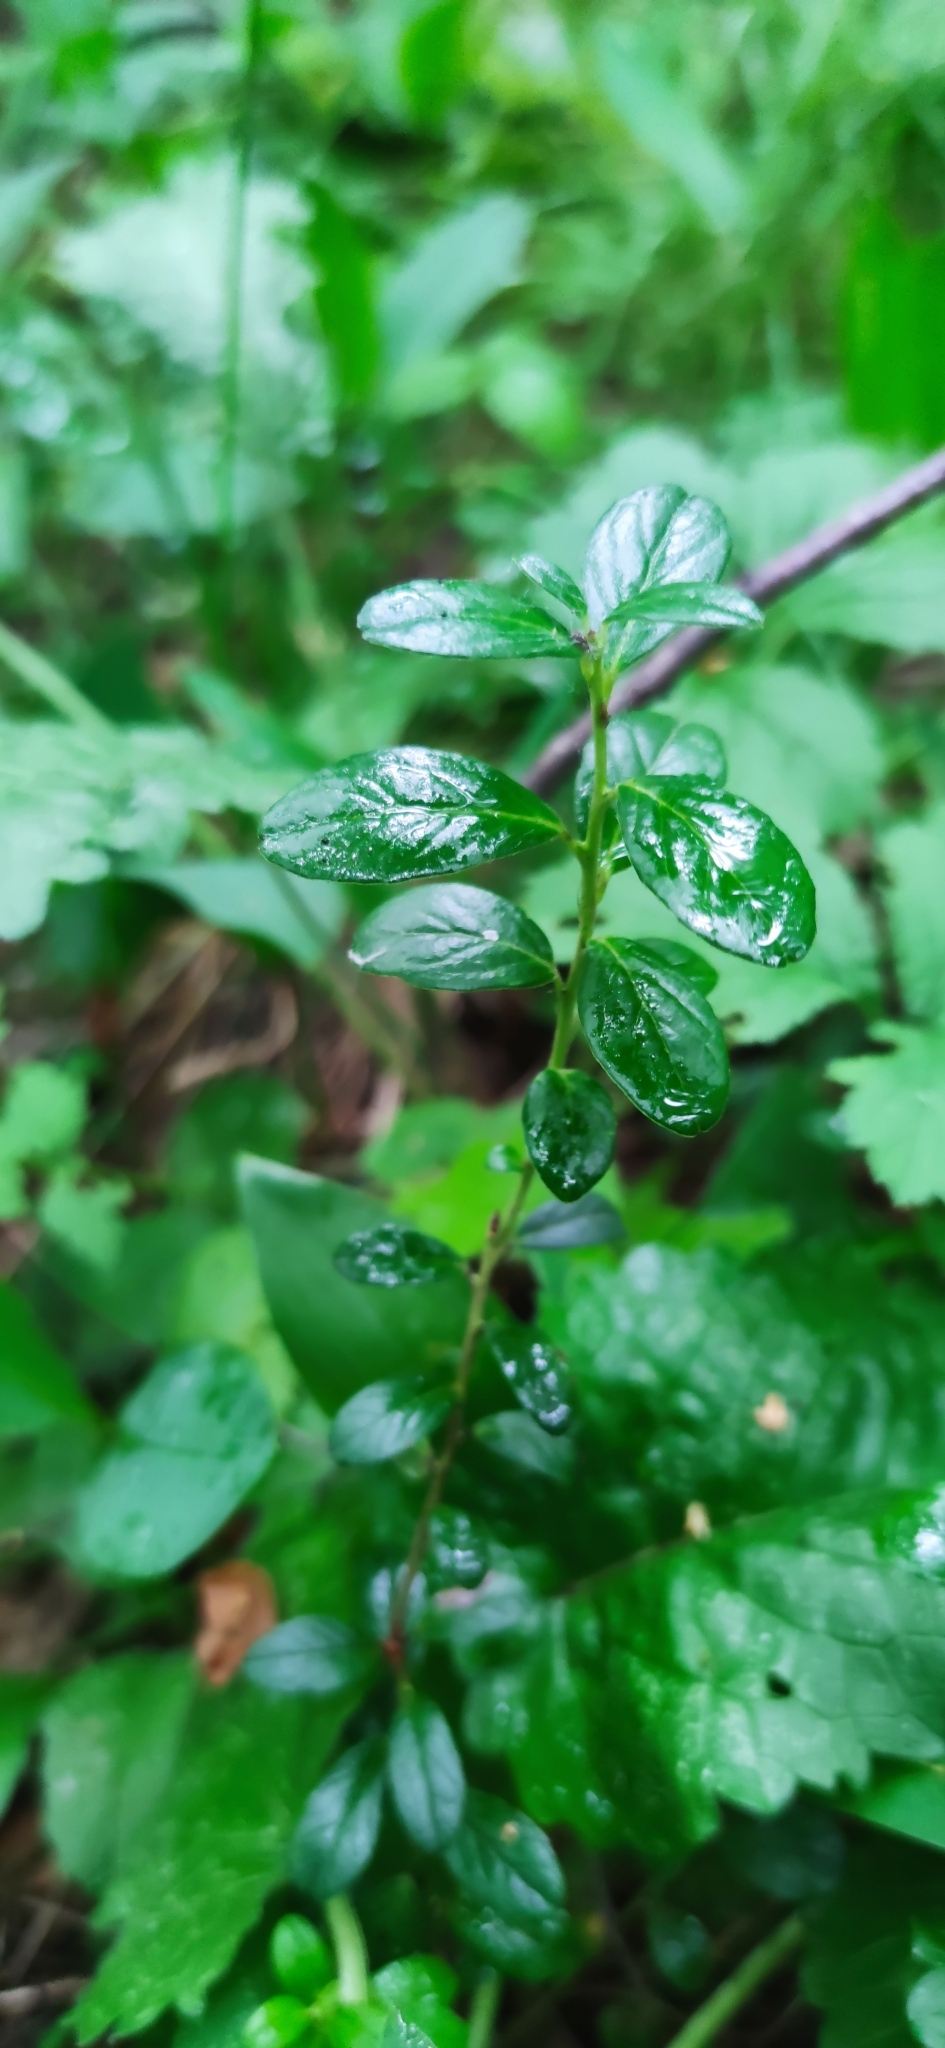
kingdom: Plantae
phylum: Tracheophyta
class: Magnoliopsida
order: Ericales
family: Ericaceae
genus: Vaccinium
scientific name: Vaccinium vitis-idaea
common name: Cowberry
